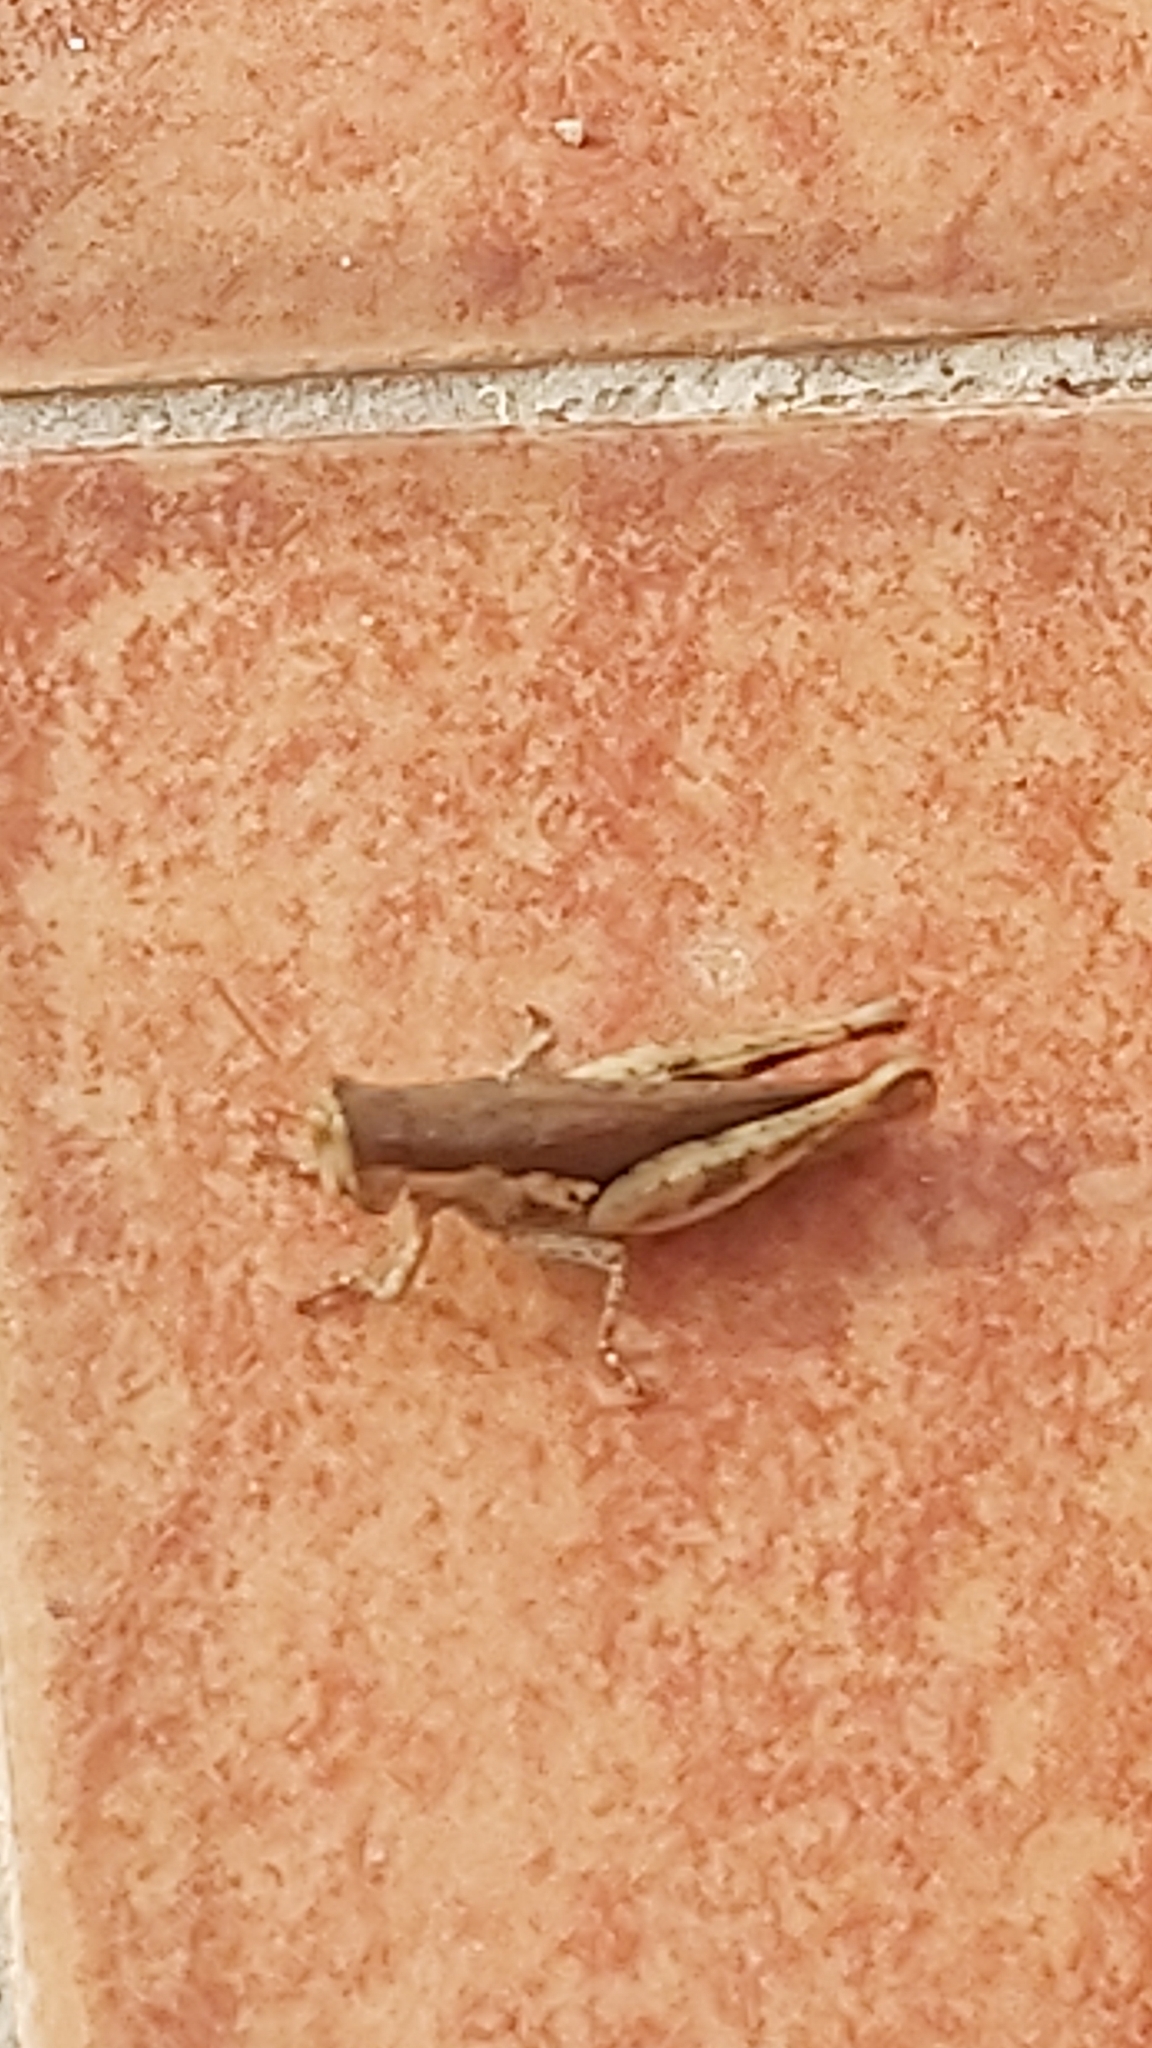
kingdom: Animalia
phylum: Arthropoda
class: Insecta
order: Orthoptera
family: Acrididae
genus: Pseudoxya
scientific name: Pseudoxya diminuta
